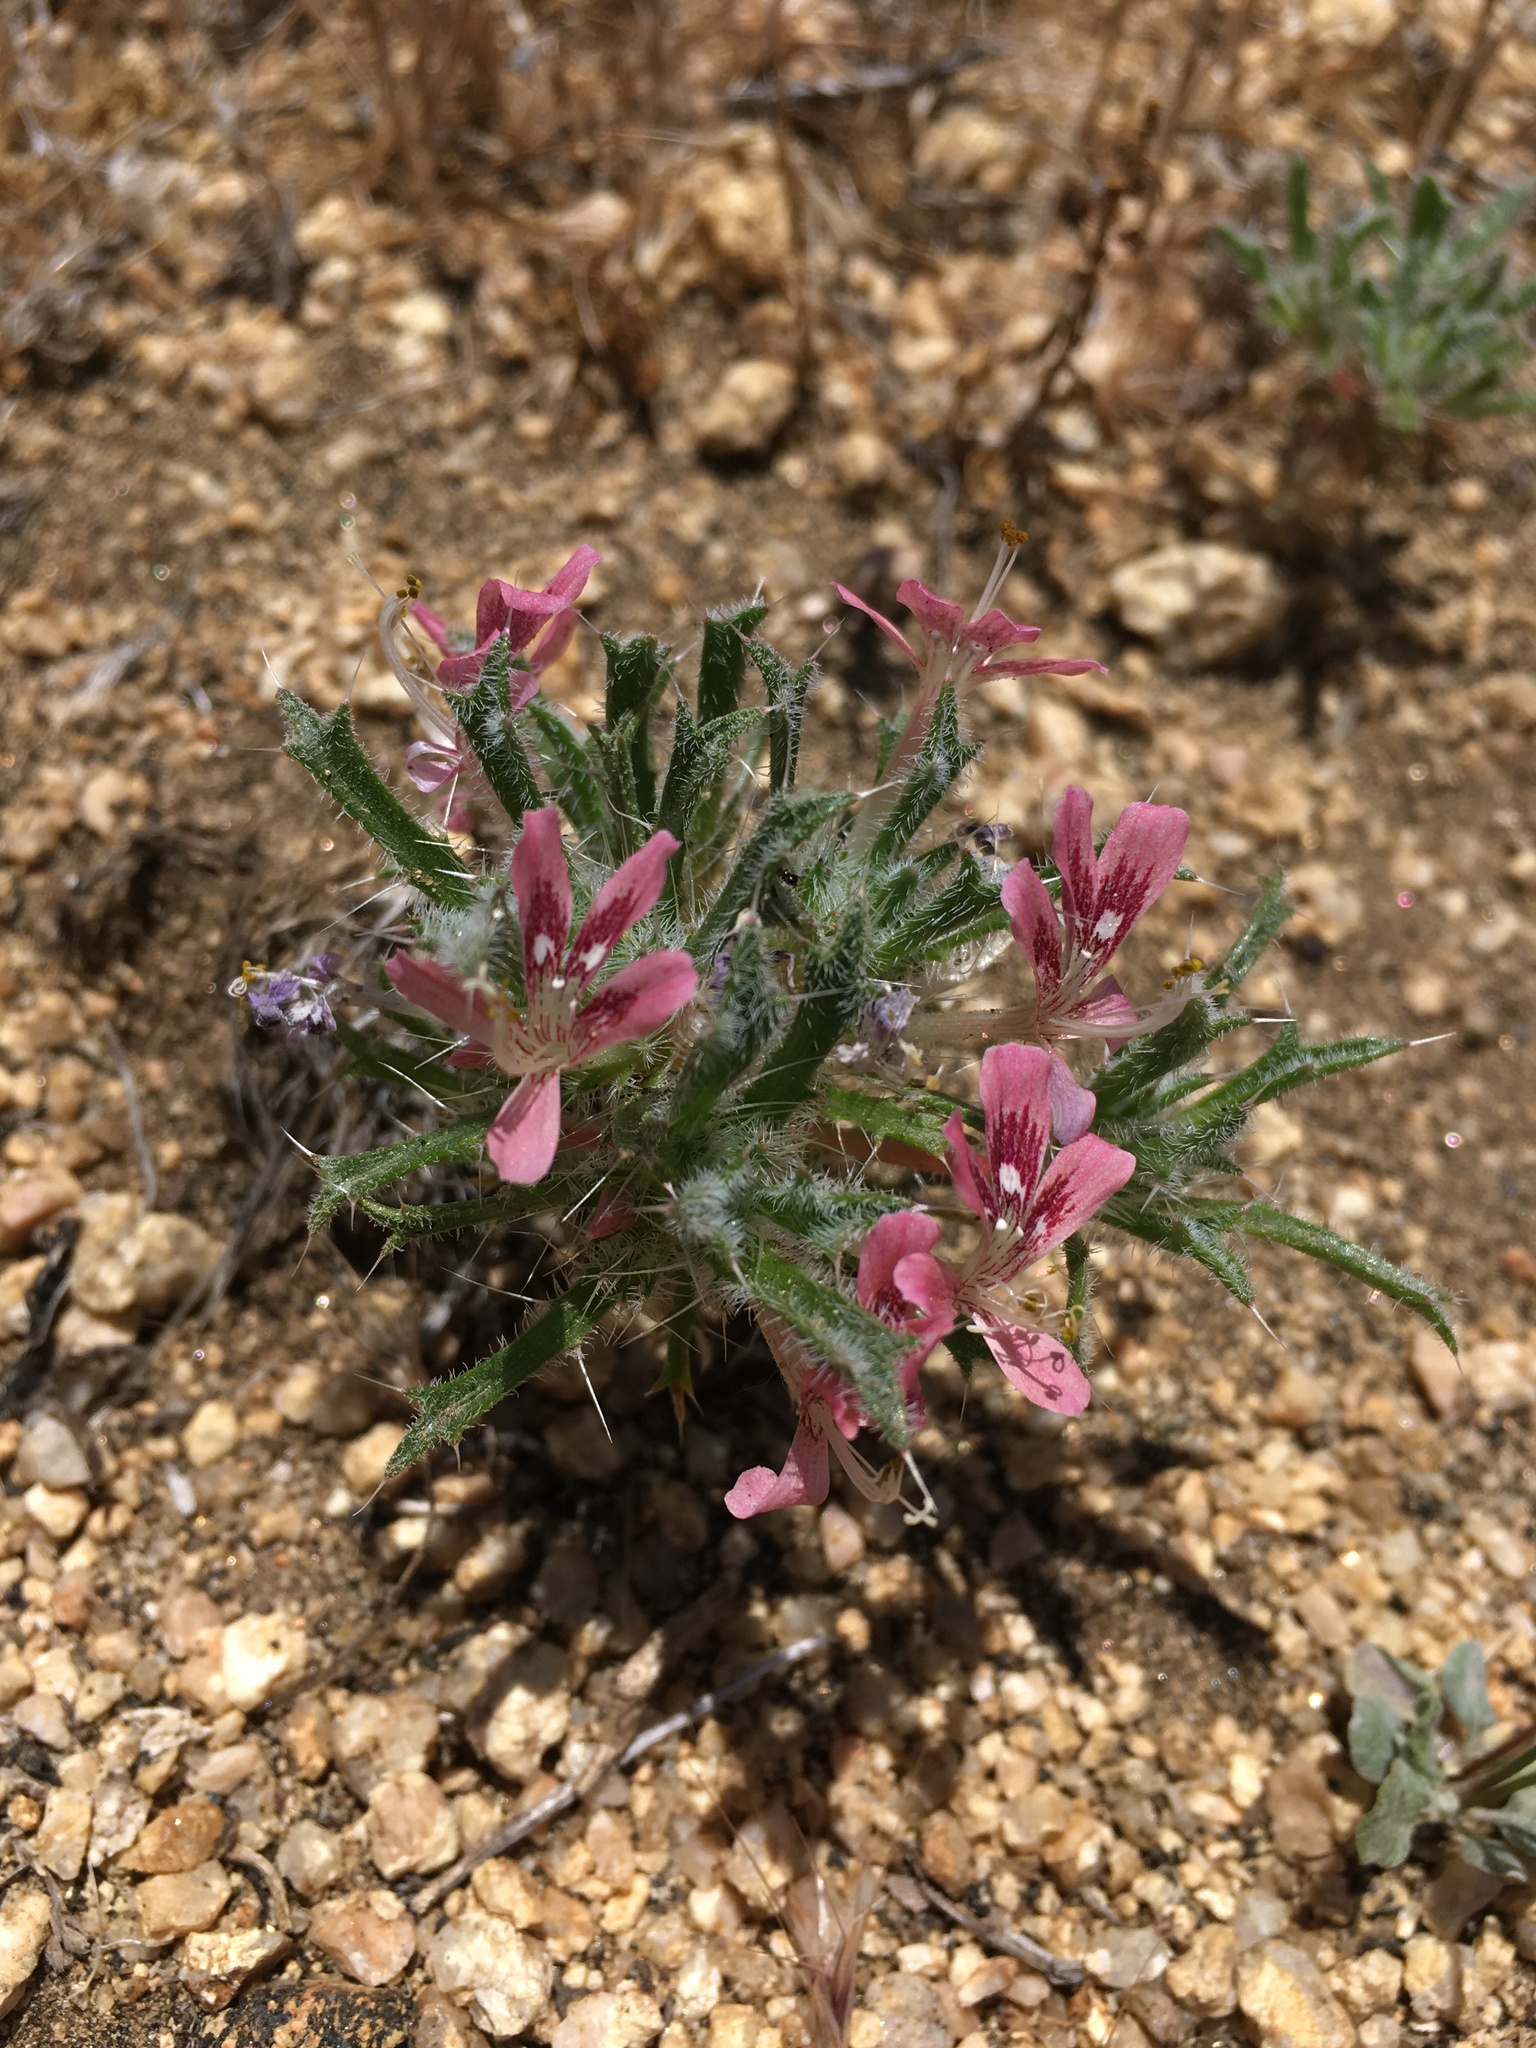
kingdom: Plantae
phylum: Tracheophyta
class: Magnoliopsida
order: Ericales
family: Polemoniaceae
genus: Loeseliastrum
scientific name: Loeseliastrum matthewsii
